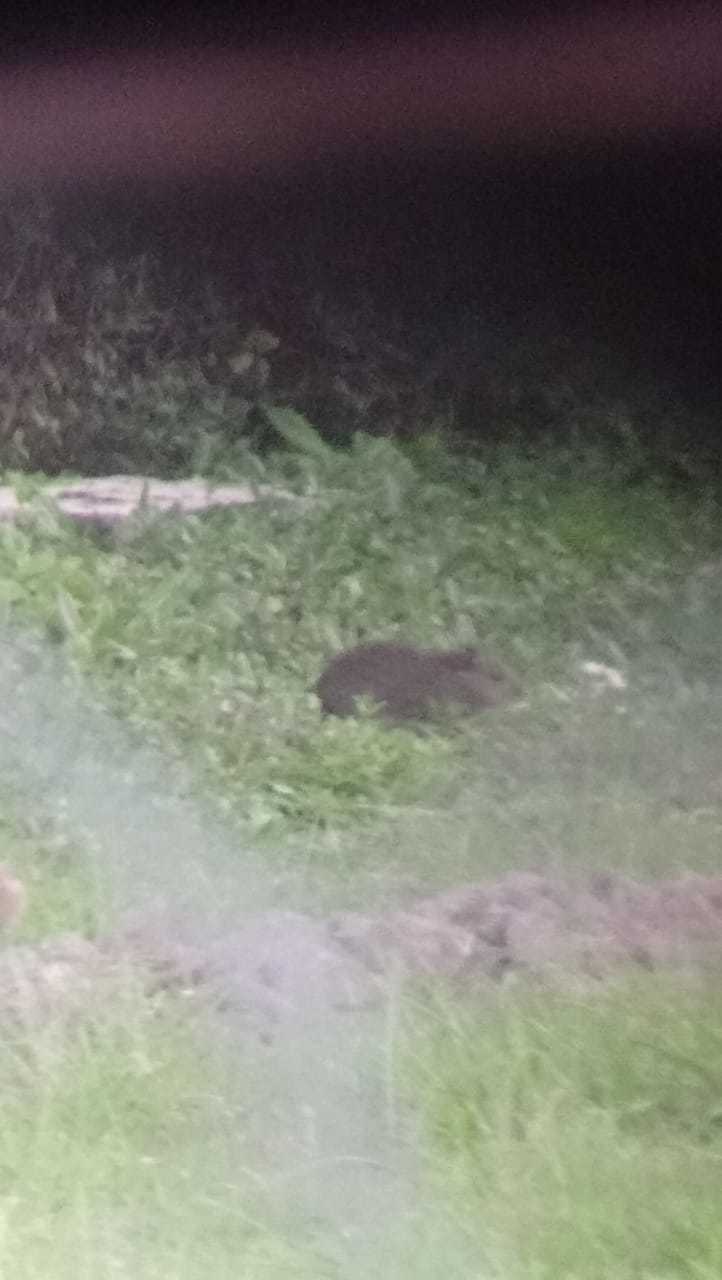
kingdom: Animalia
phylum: Chordata
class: Mammalia
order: Rodentia
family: Caviidae
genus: Cavia
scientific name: Cavia aperea
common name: Brazilian guinea pig
